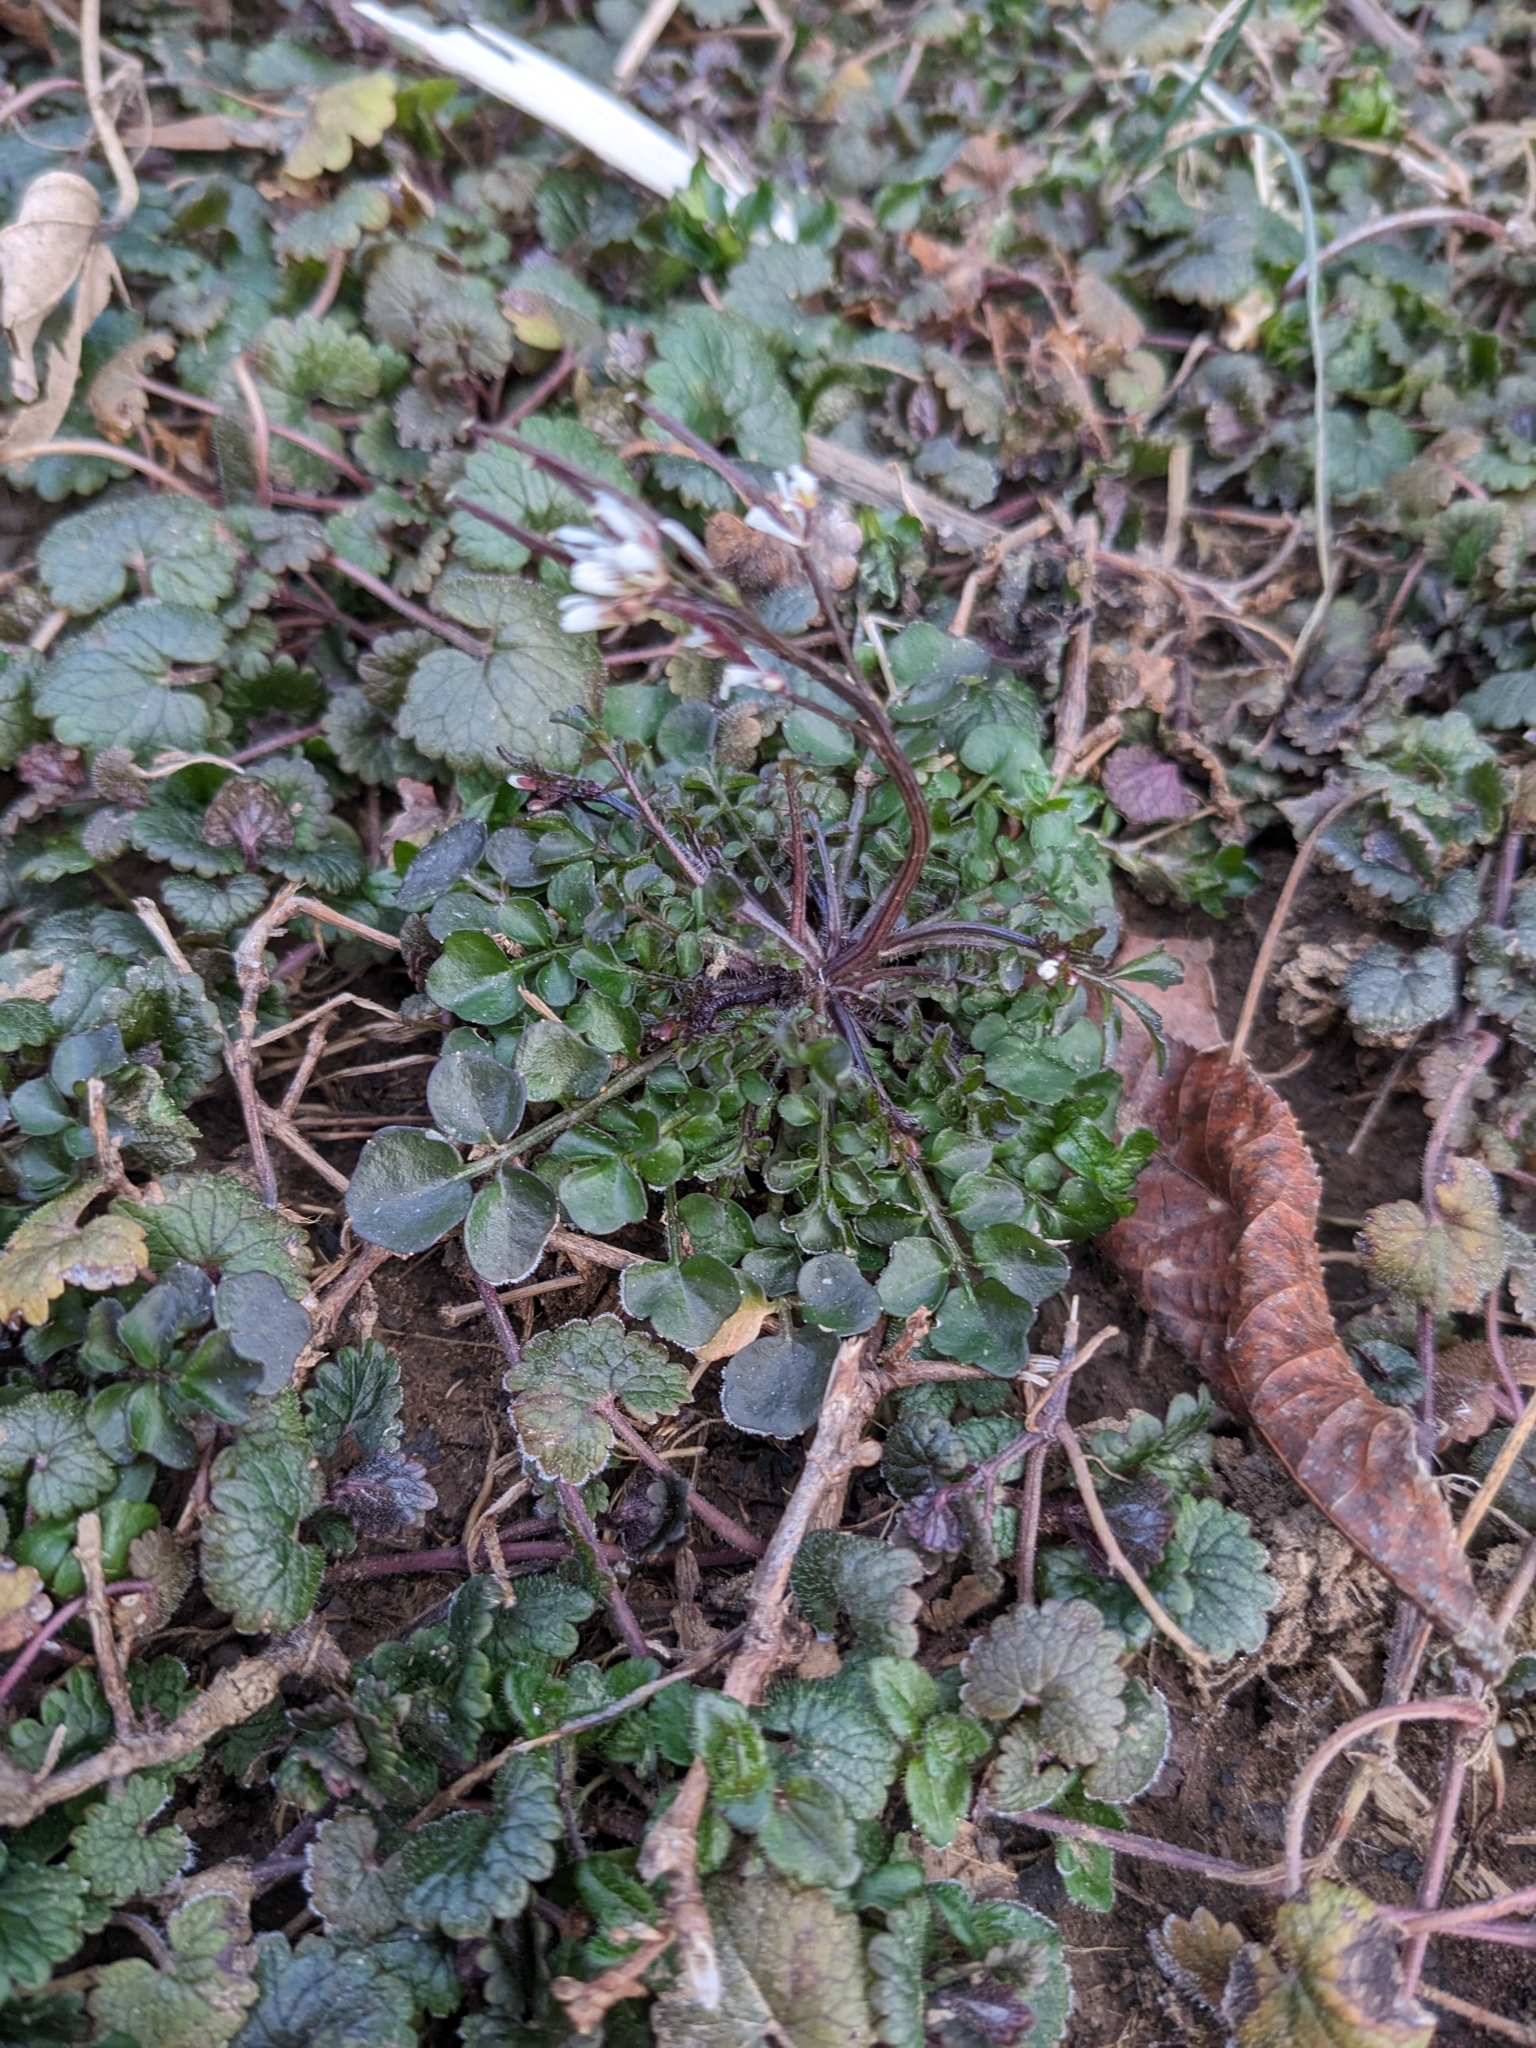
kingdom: Plantae
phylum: Tracheophyta
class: Magnoliopsida
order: Brassicales
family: Brassicaceae
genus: Cardamine
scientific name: Cardamine hirsuta
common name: Hairy bittercress
